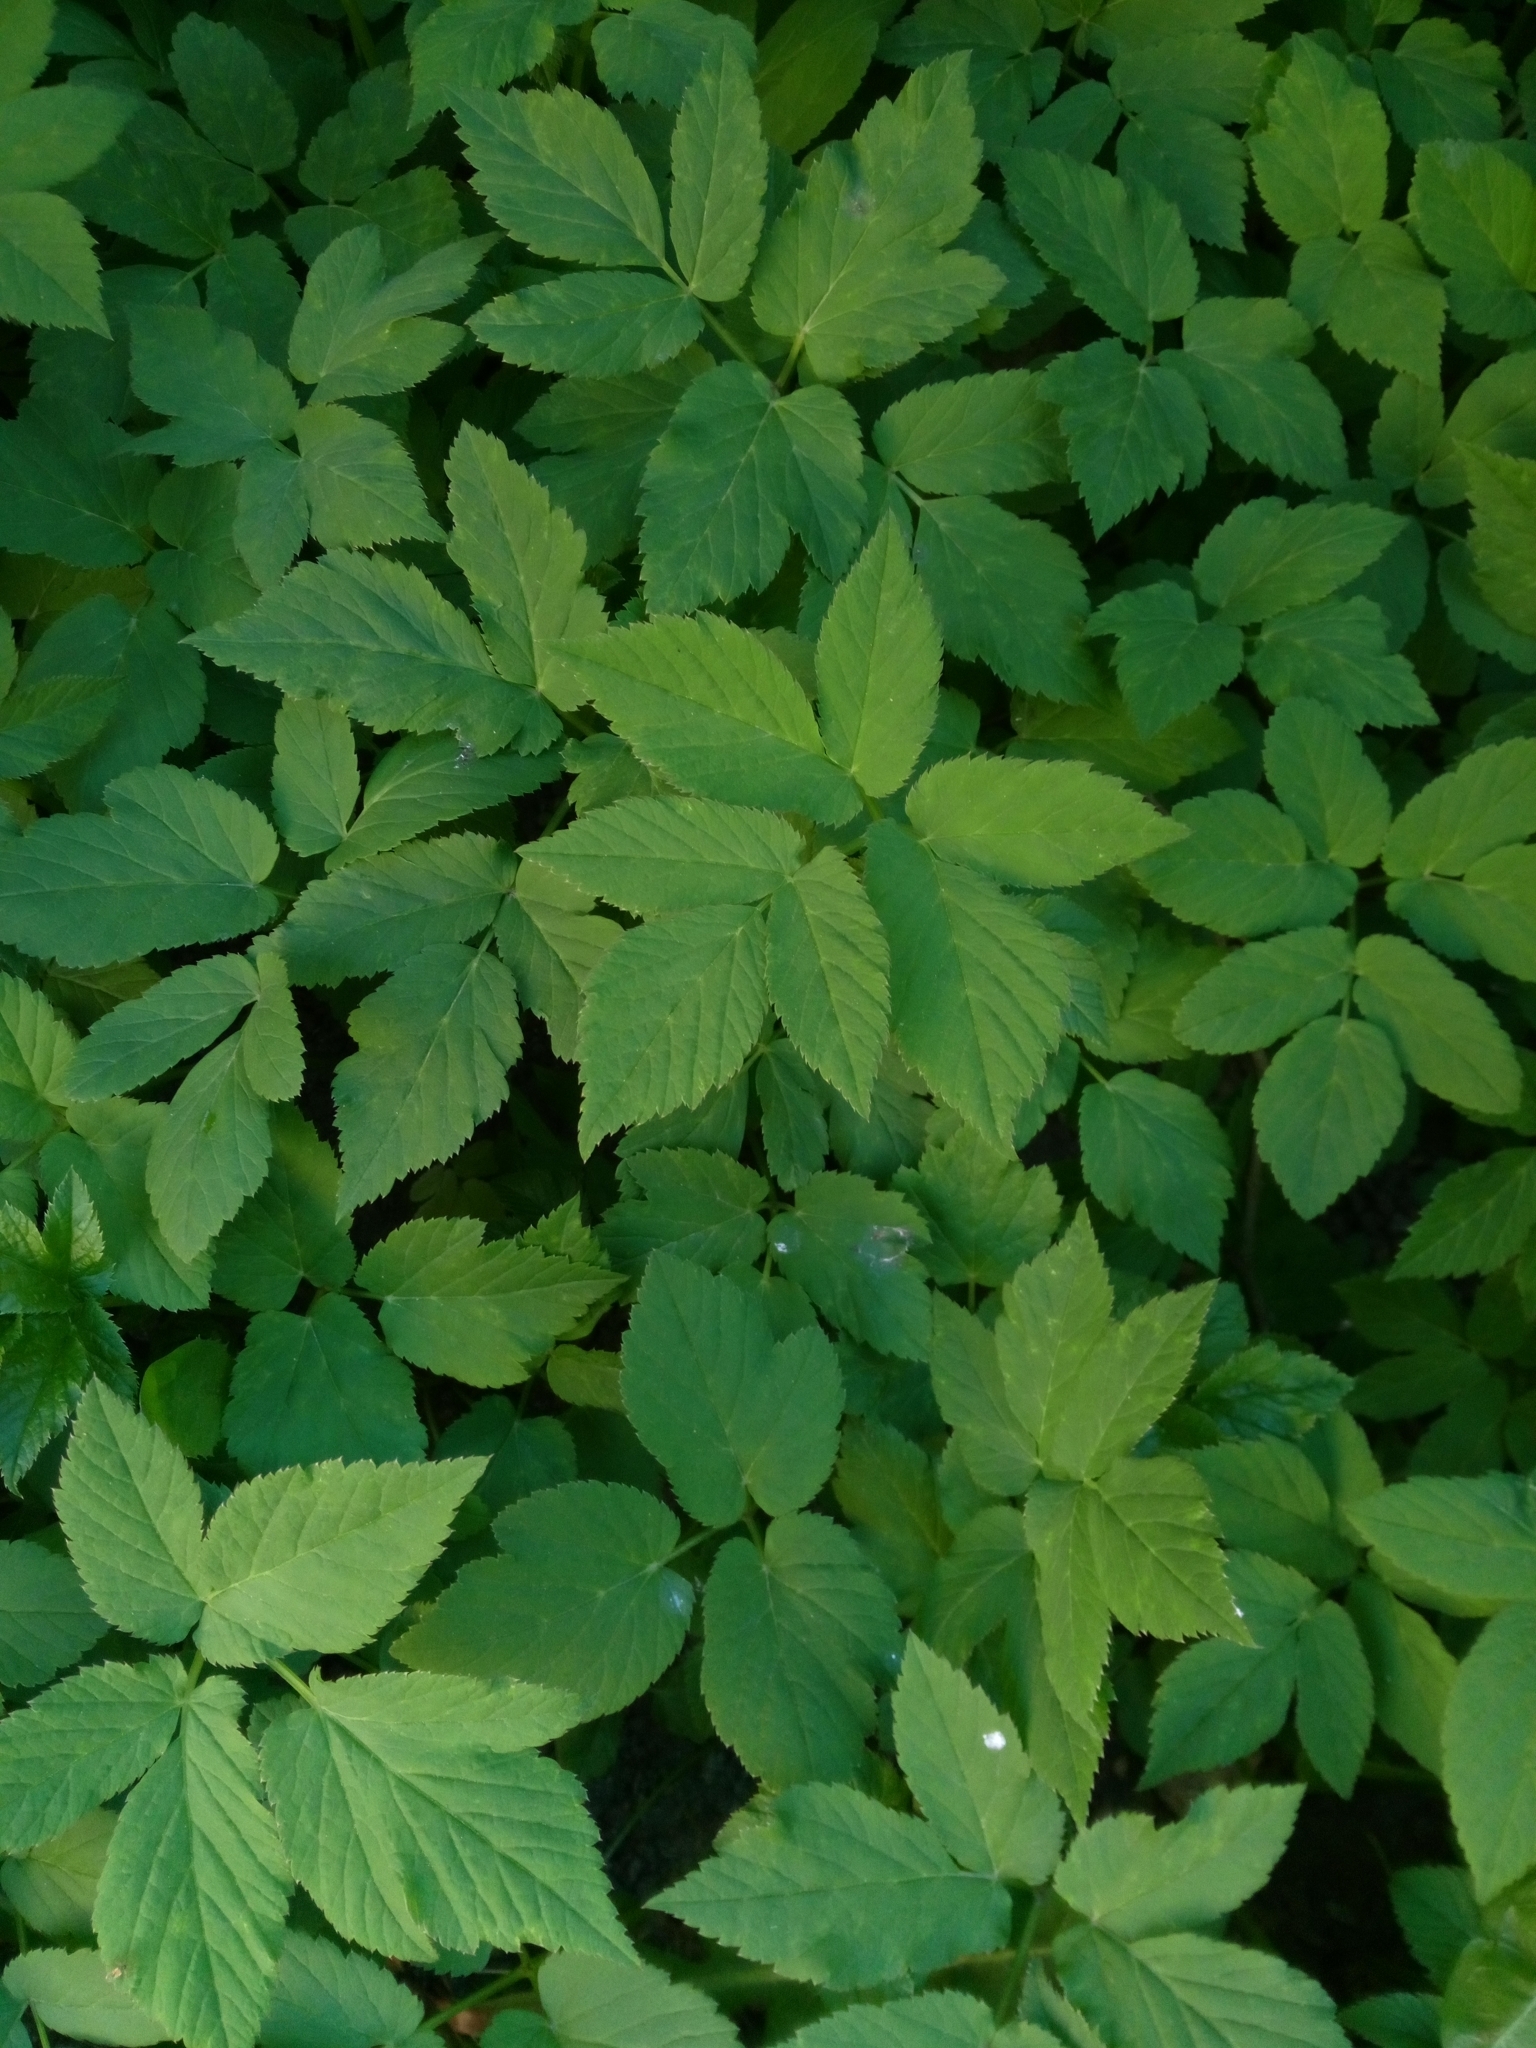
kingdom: Plantae
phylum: Tracheophyta
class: Magnoliopsida
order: Apiales
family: Apiaceae
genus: Aegopodium
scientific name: Aegopodium podagraria
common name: Ground-elder
